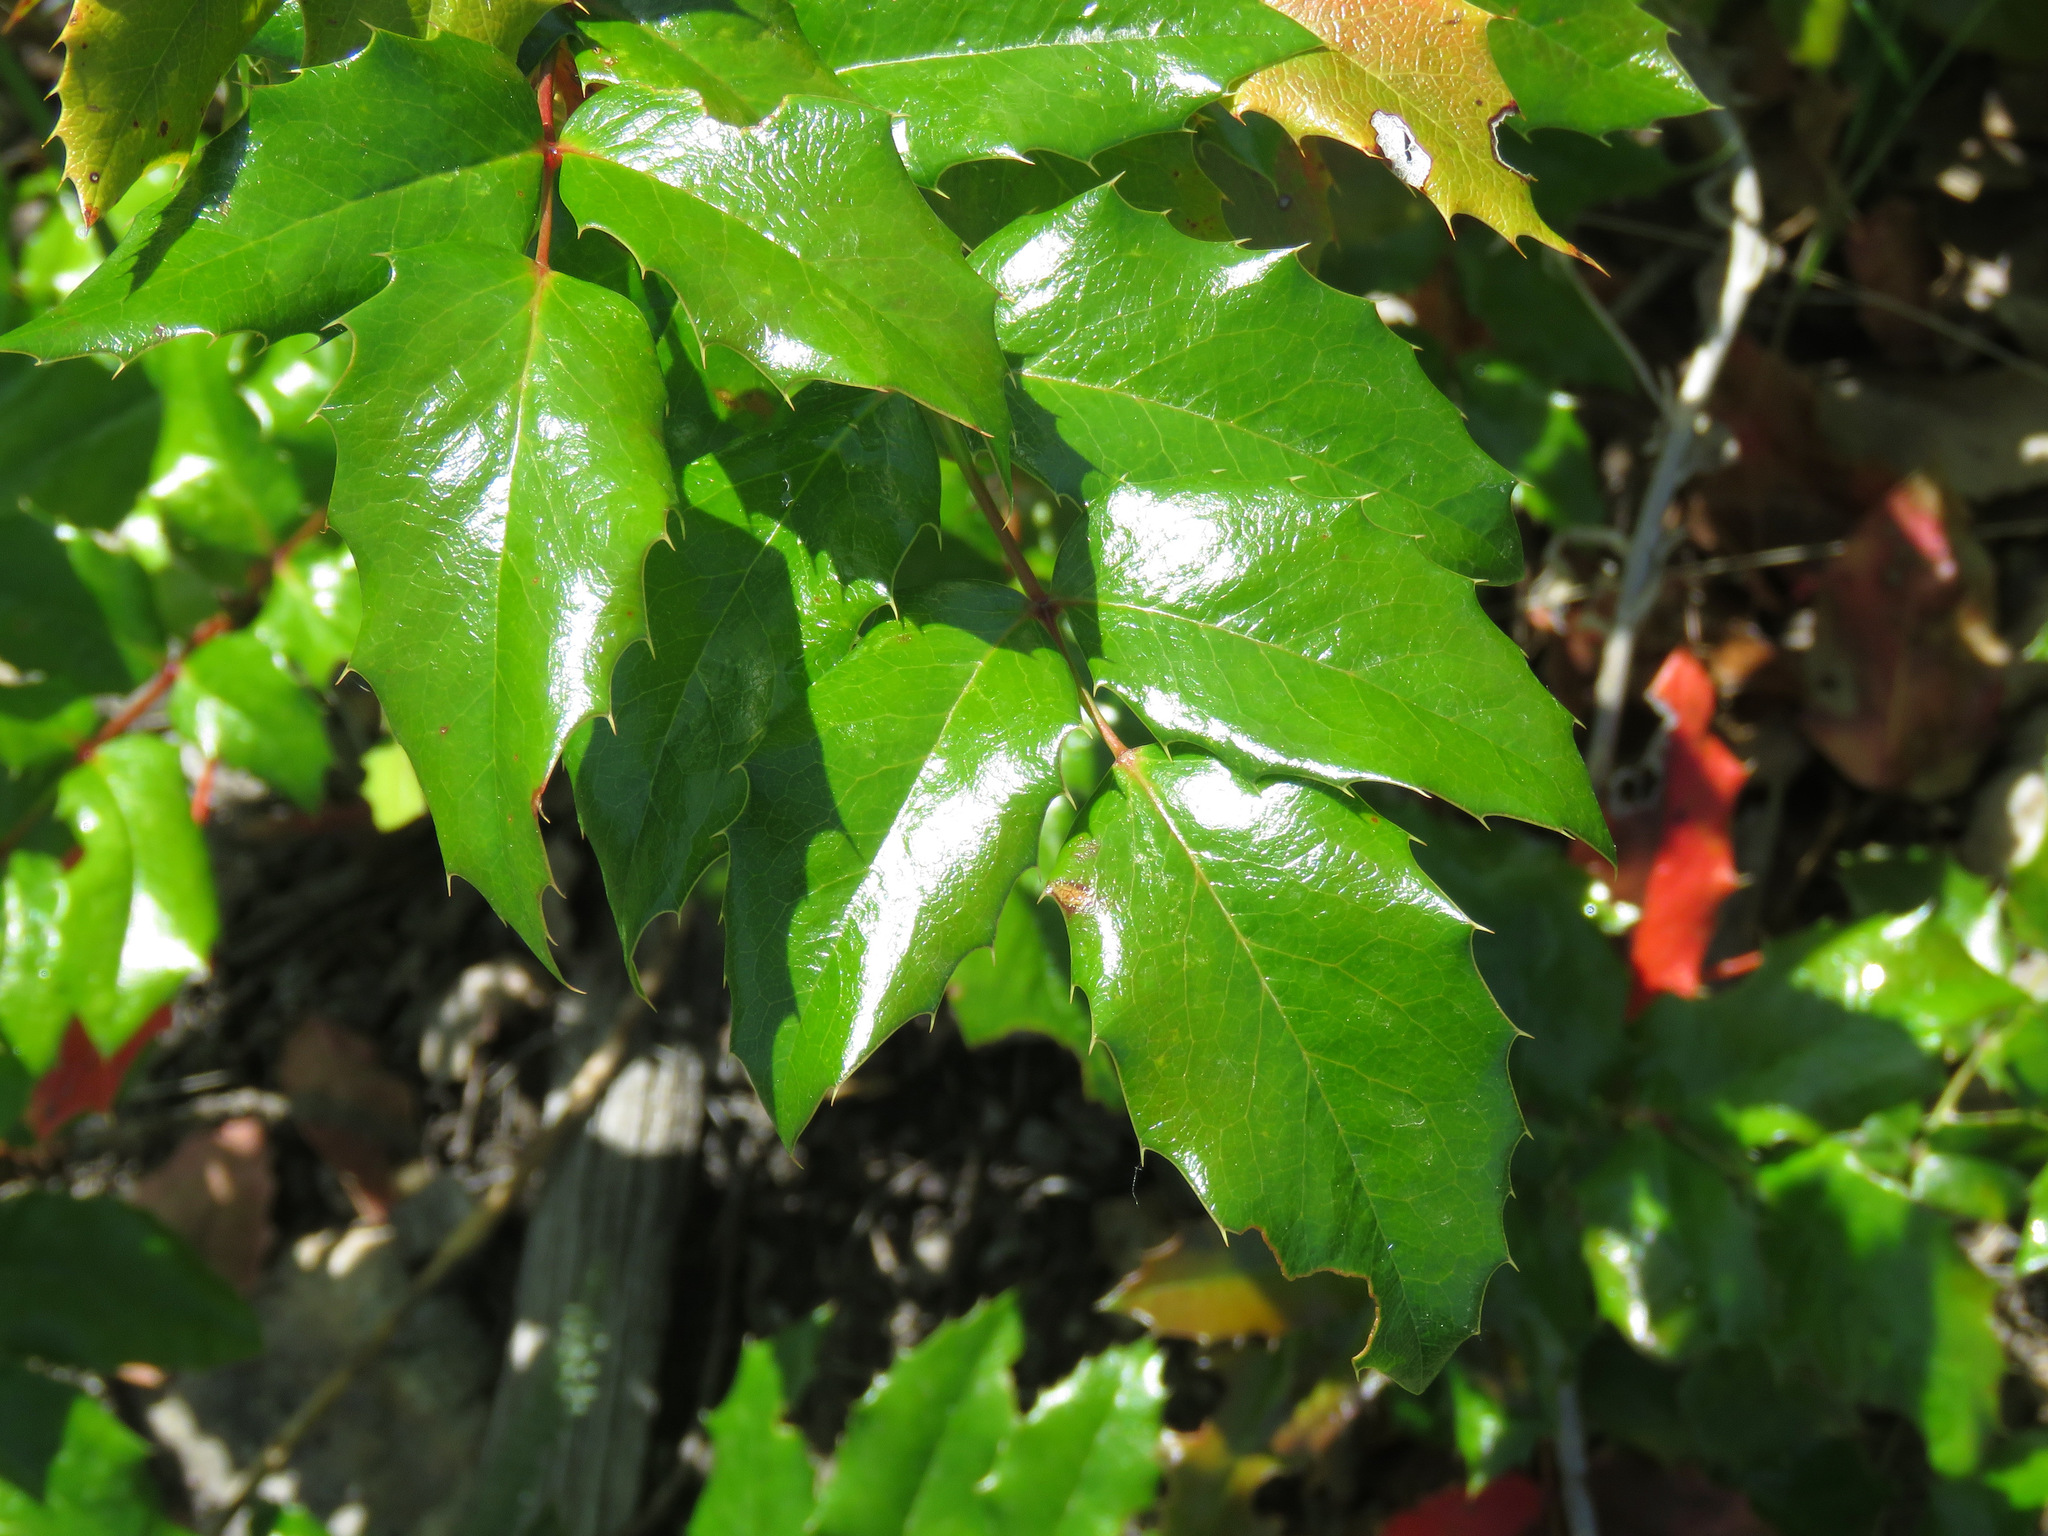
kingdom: Plantae
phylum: Tracheophyta
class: Magnoliopsida
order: Ranunculales
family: Berberidaceae
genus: Mahonia
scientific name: Mahonia aquifolium
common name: Oregon-grape
